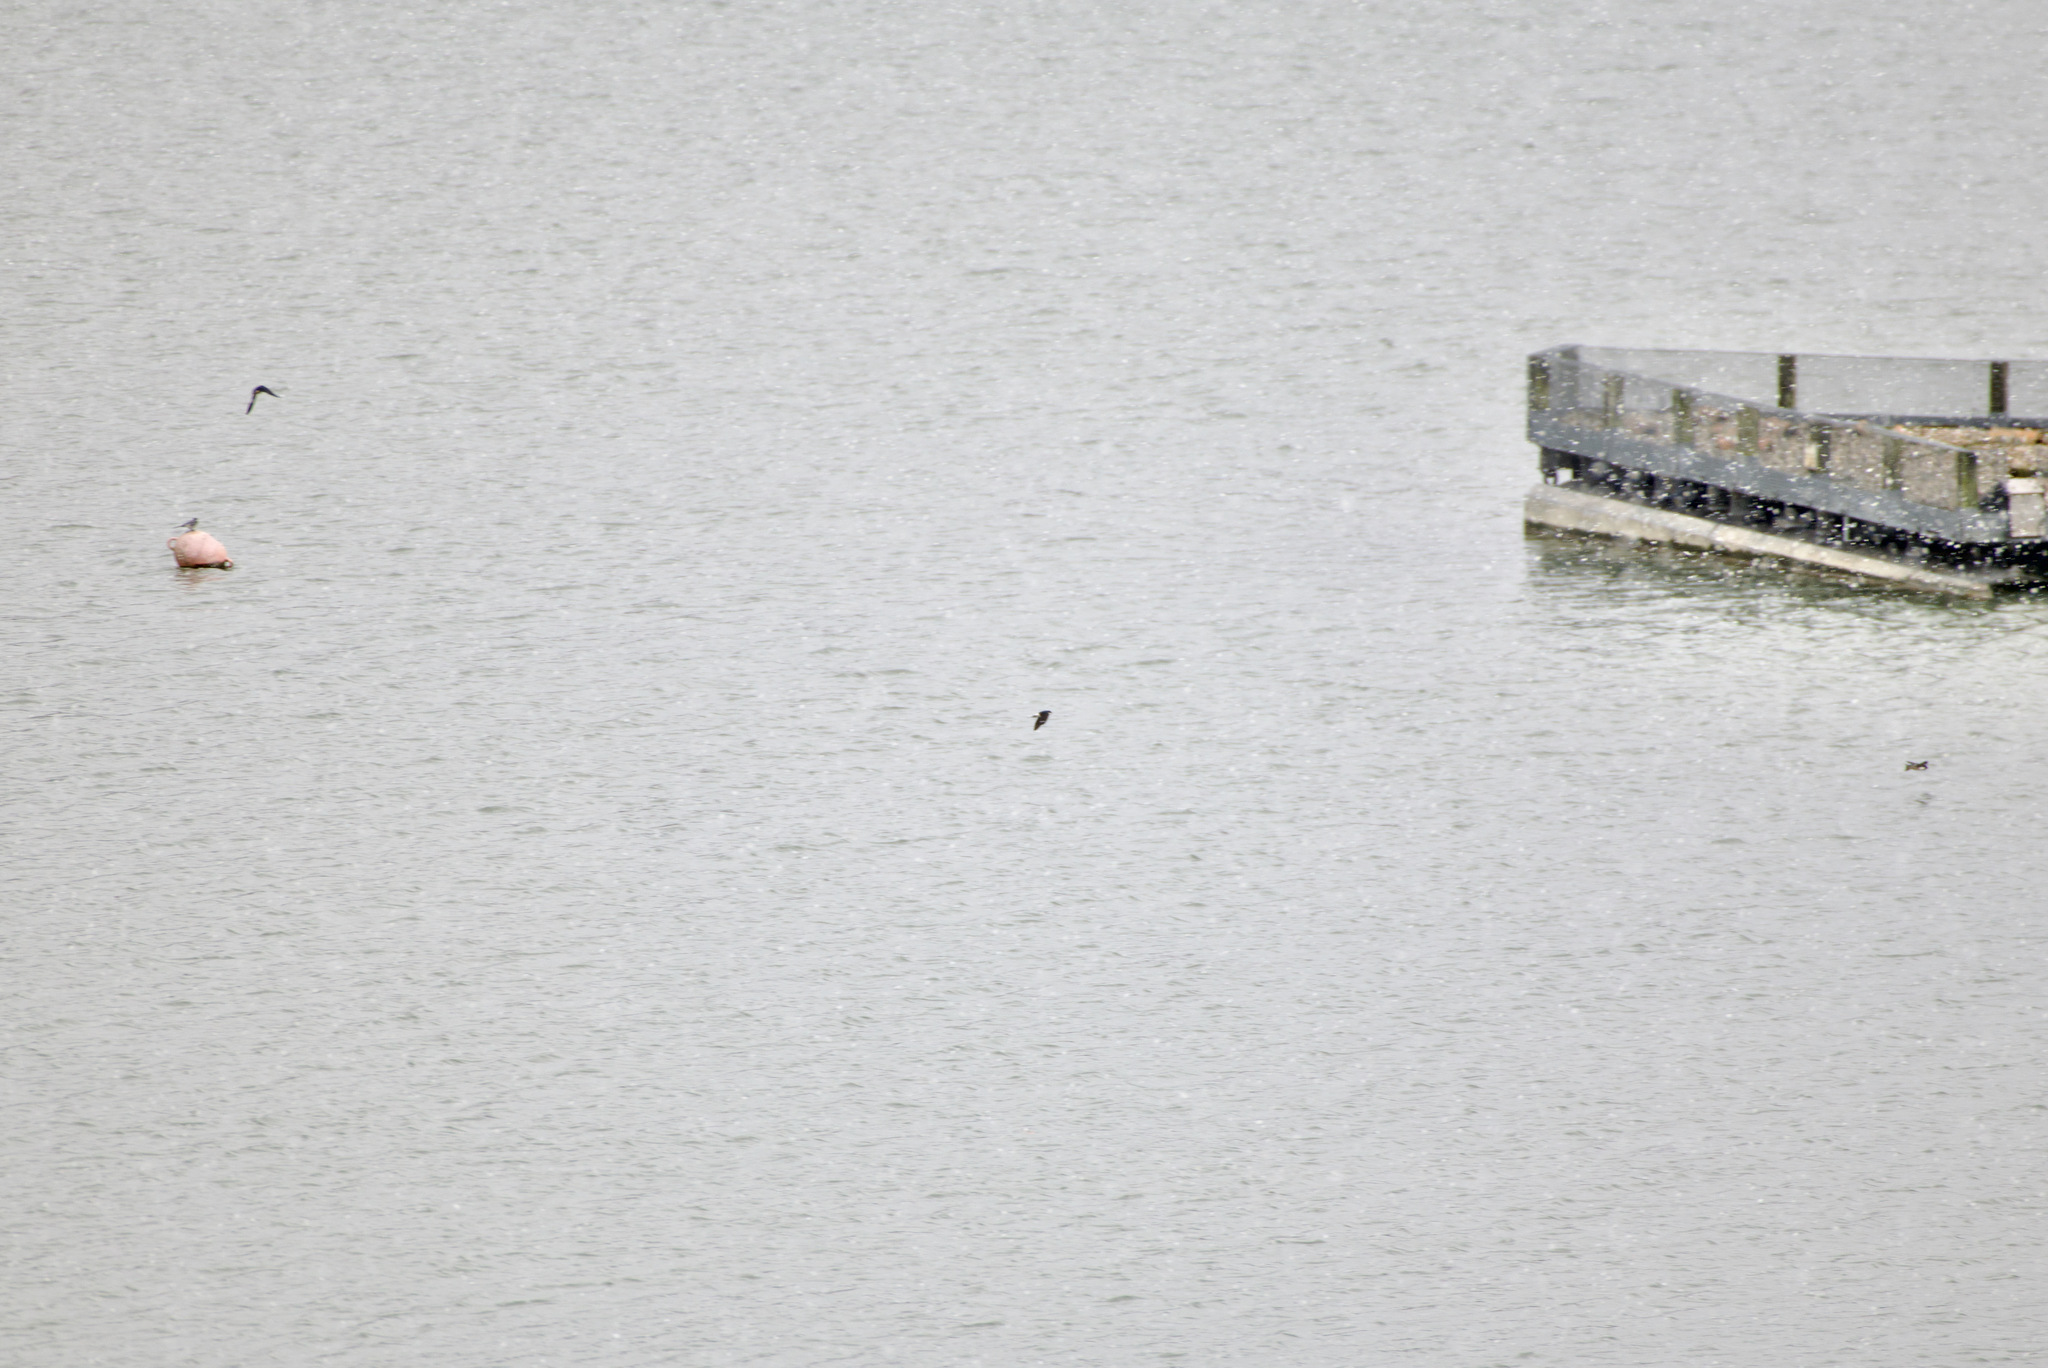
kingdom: Animalia
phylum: Chordata
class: Aves
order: Passeriformes
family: Hirundinidae
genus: Delichon
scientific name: Delichon urbicum
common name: Common house martin
